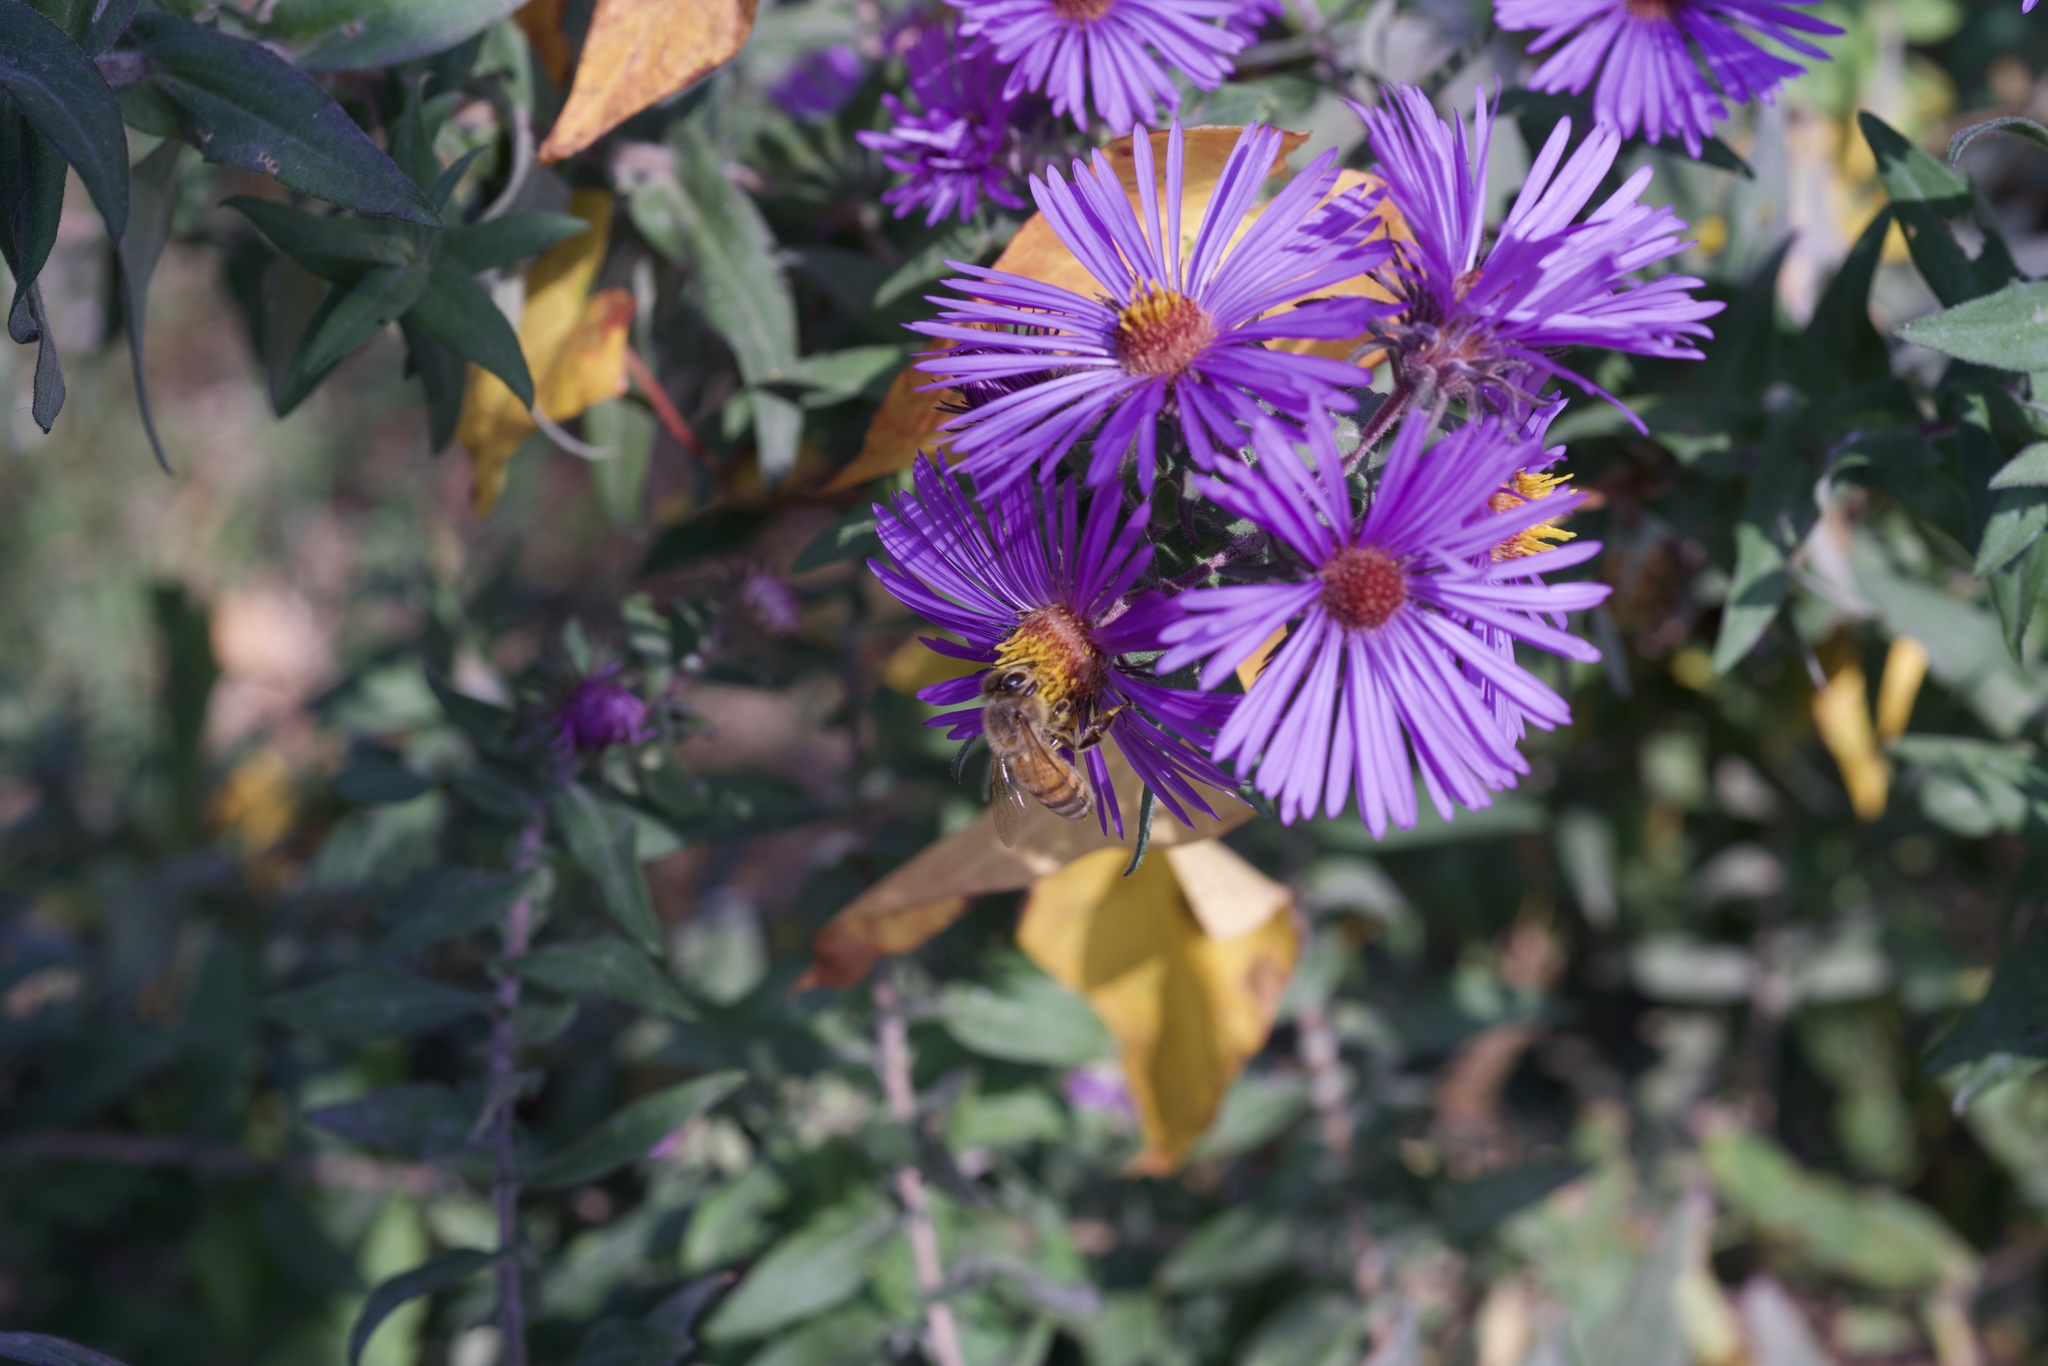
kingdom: Animalia
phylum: Arthropoda
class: Insecta
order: Hymenoptera
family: Apidae
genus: Apis
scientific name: Apis mellifera
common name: Honey bee
